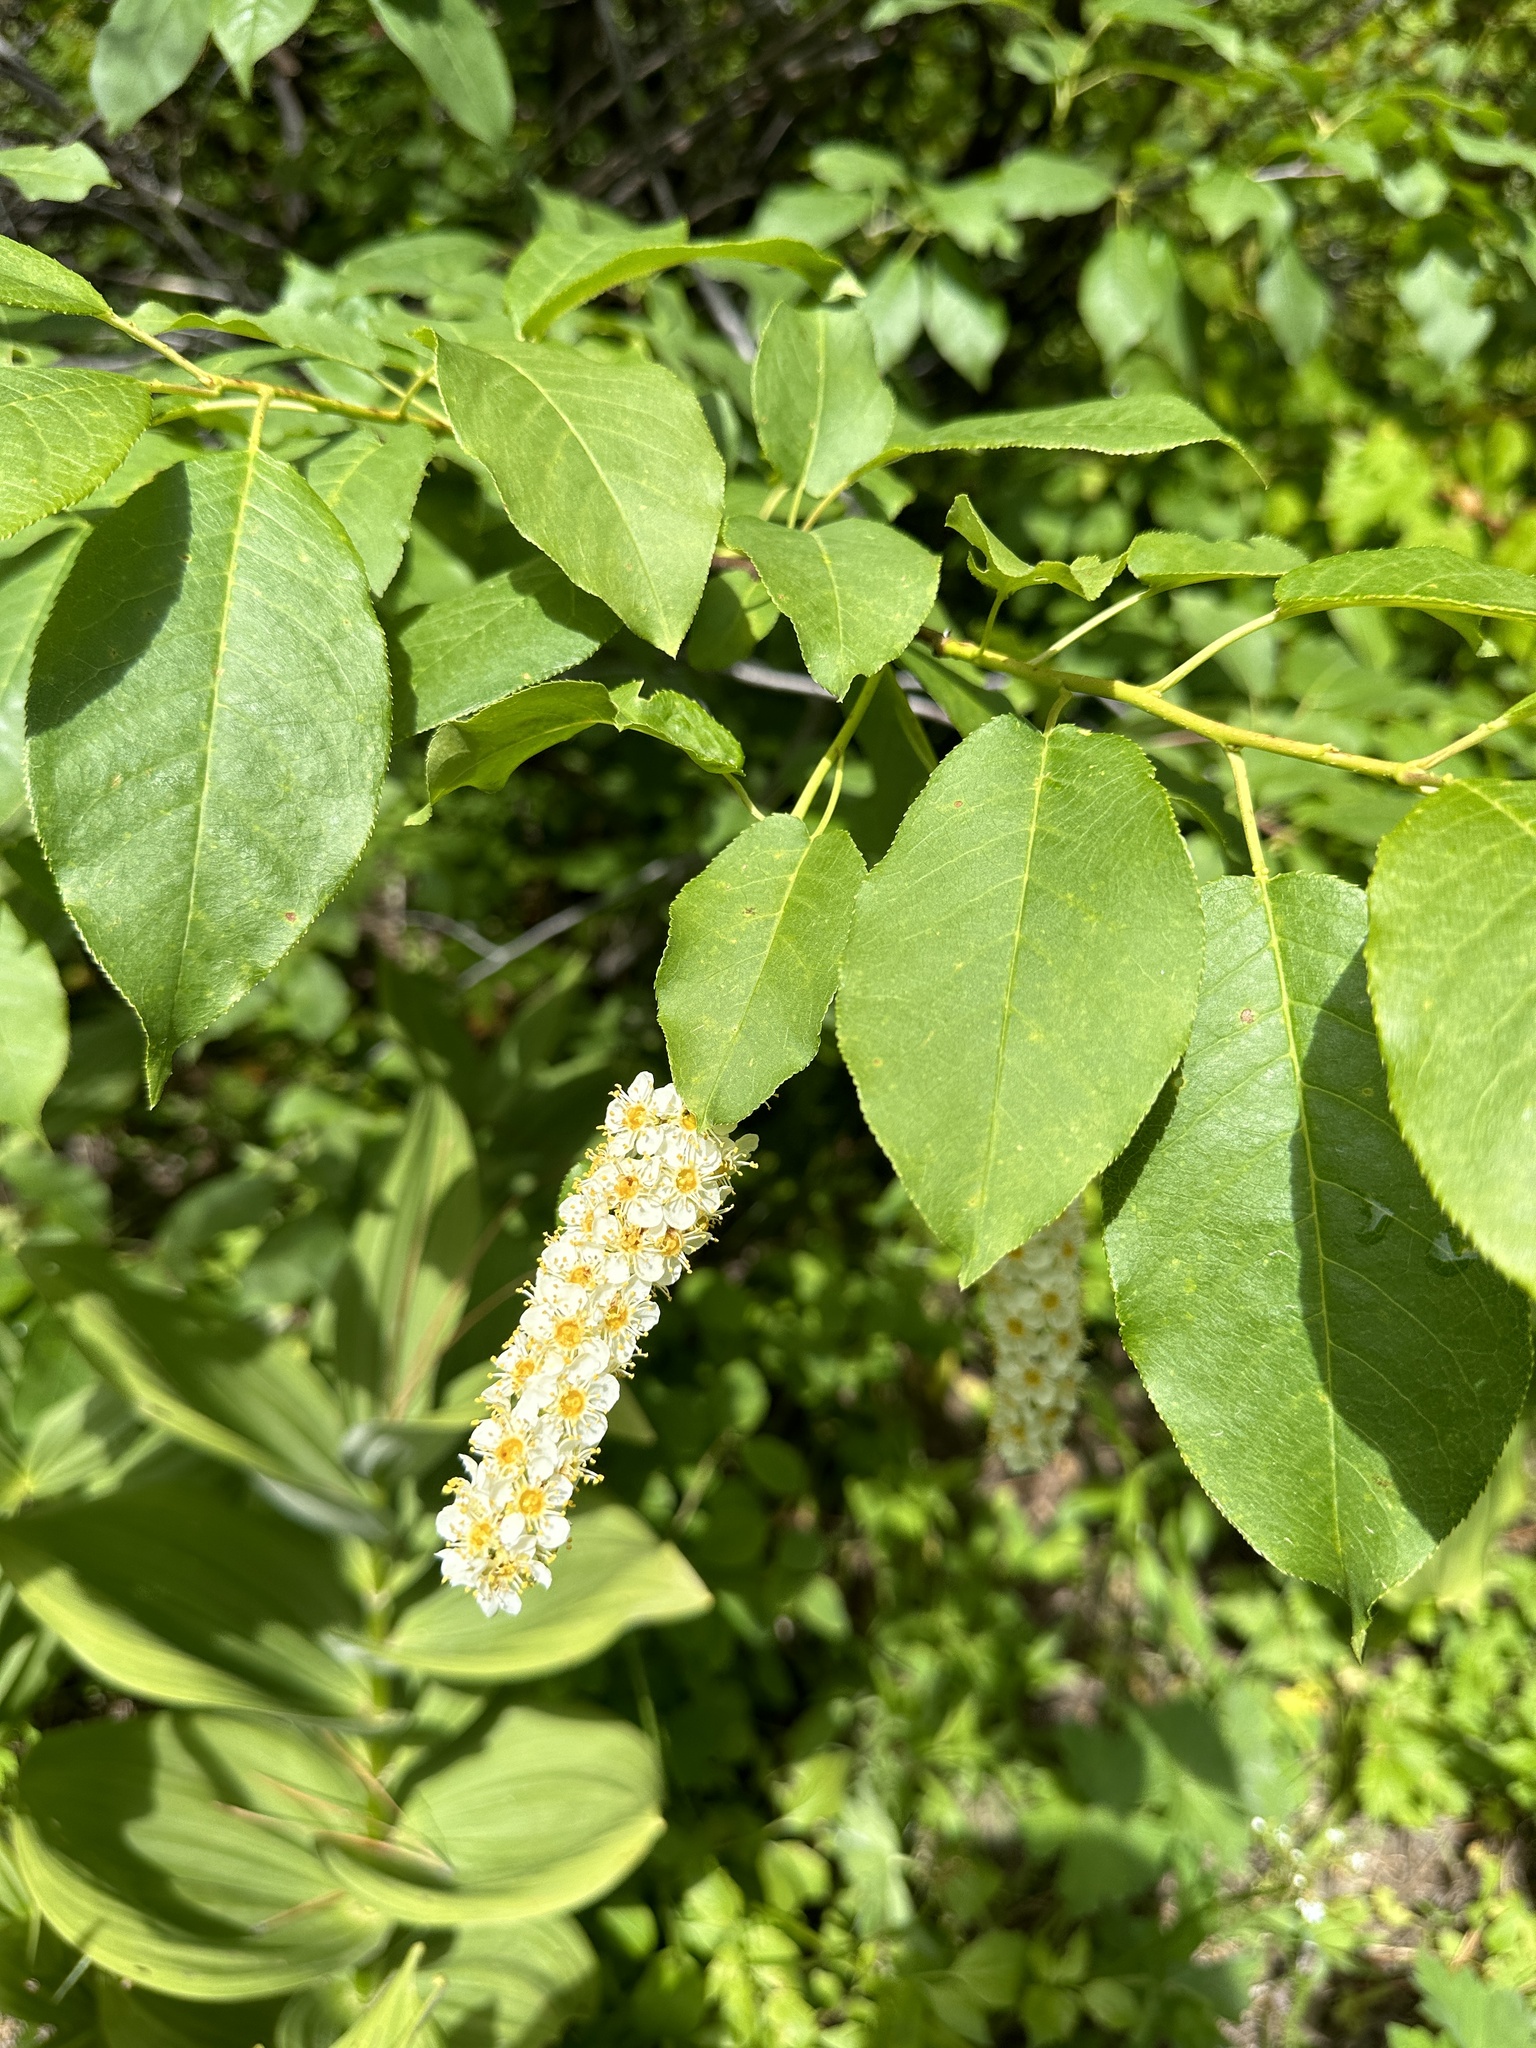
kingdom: Plantae
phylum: Tracheophyta
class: Magnoliopsida
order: Rosales
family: Rosaceae
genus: Prunus
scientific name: Prunus virginiana
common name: Chokecherry
